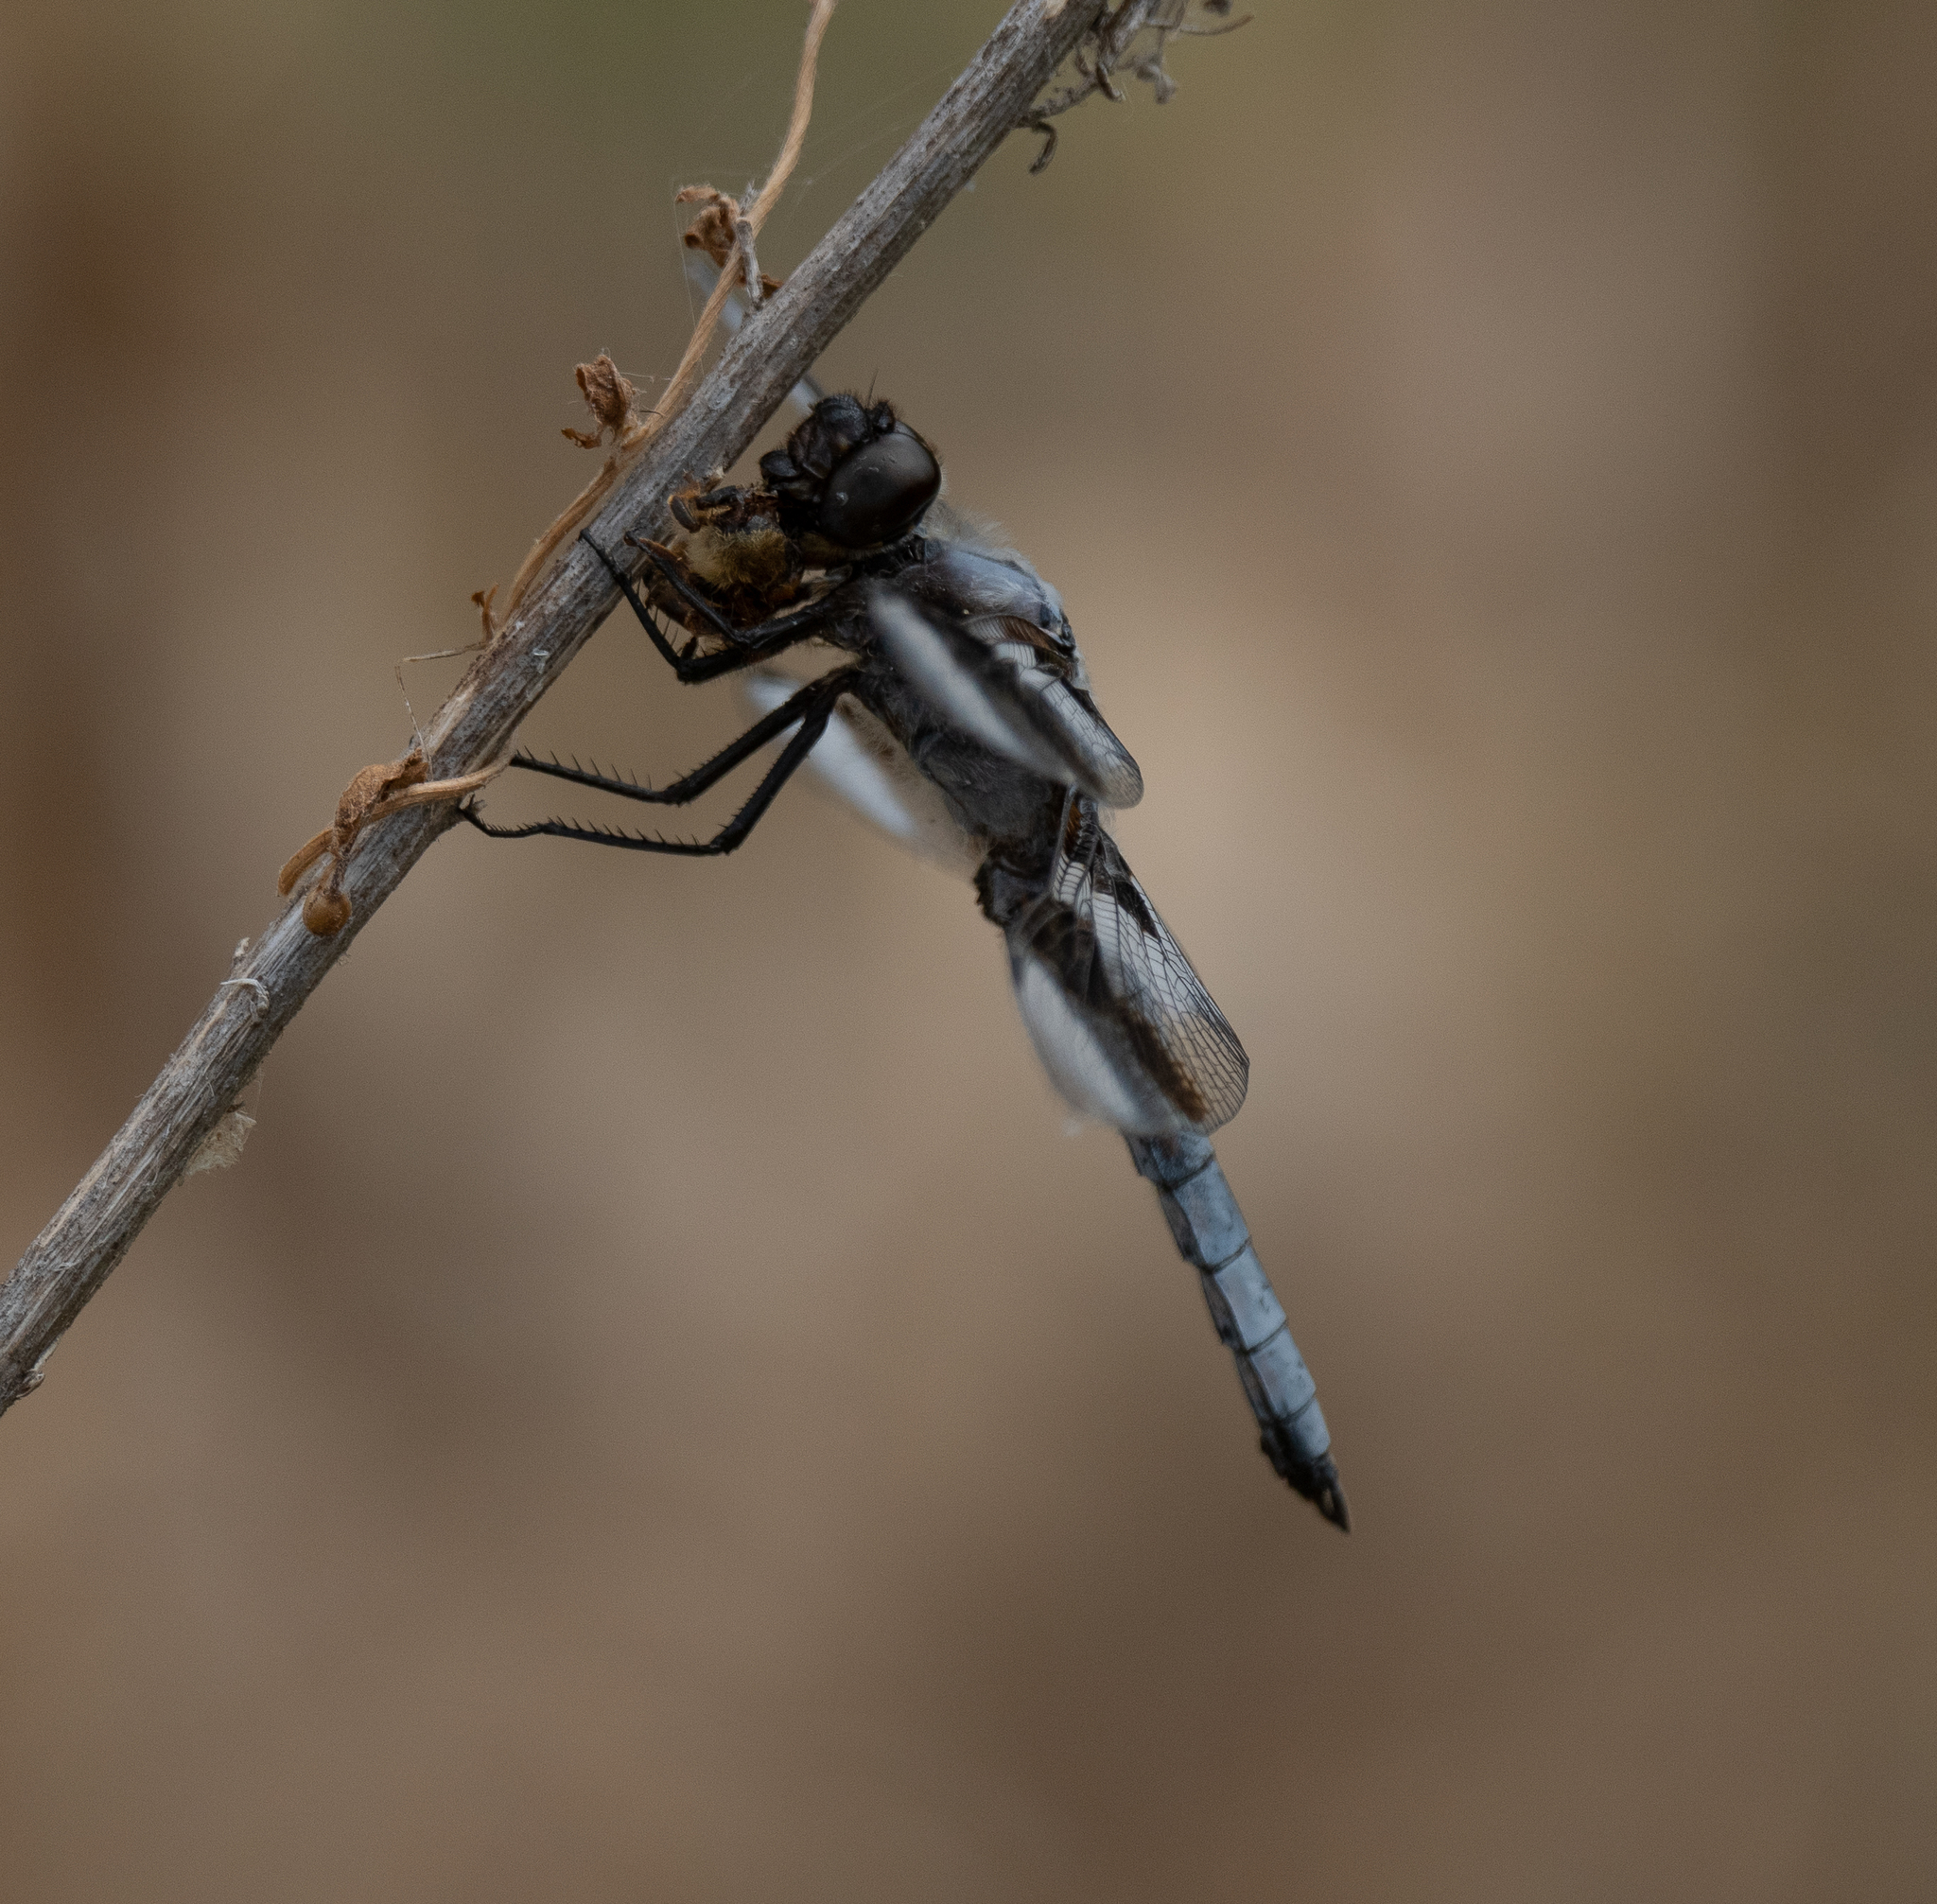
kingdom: Animalia
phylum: Arthropoda
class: Insecta
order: Odonata
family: Libellulidae
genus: Libellula
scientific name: Libellula forensis
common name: Eight-spotted skimmer
